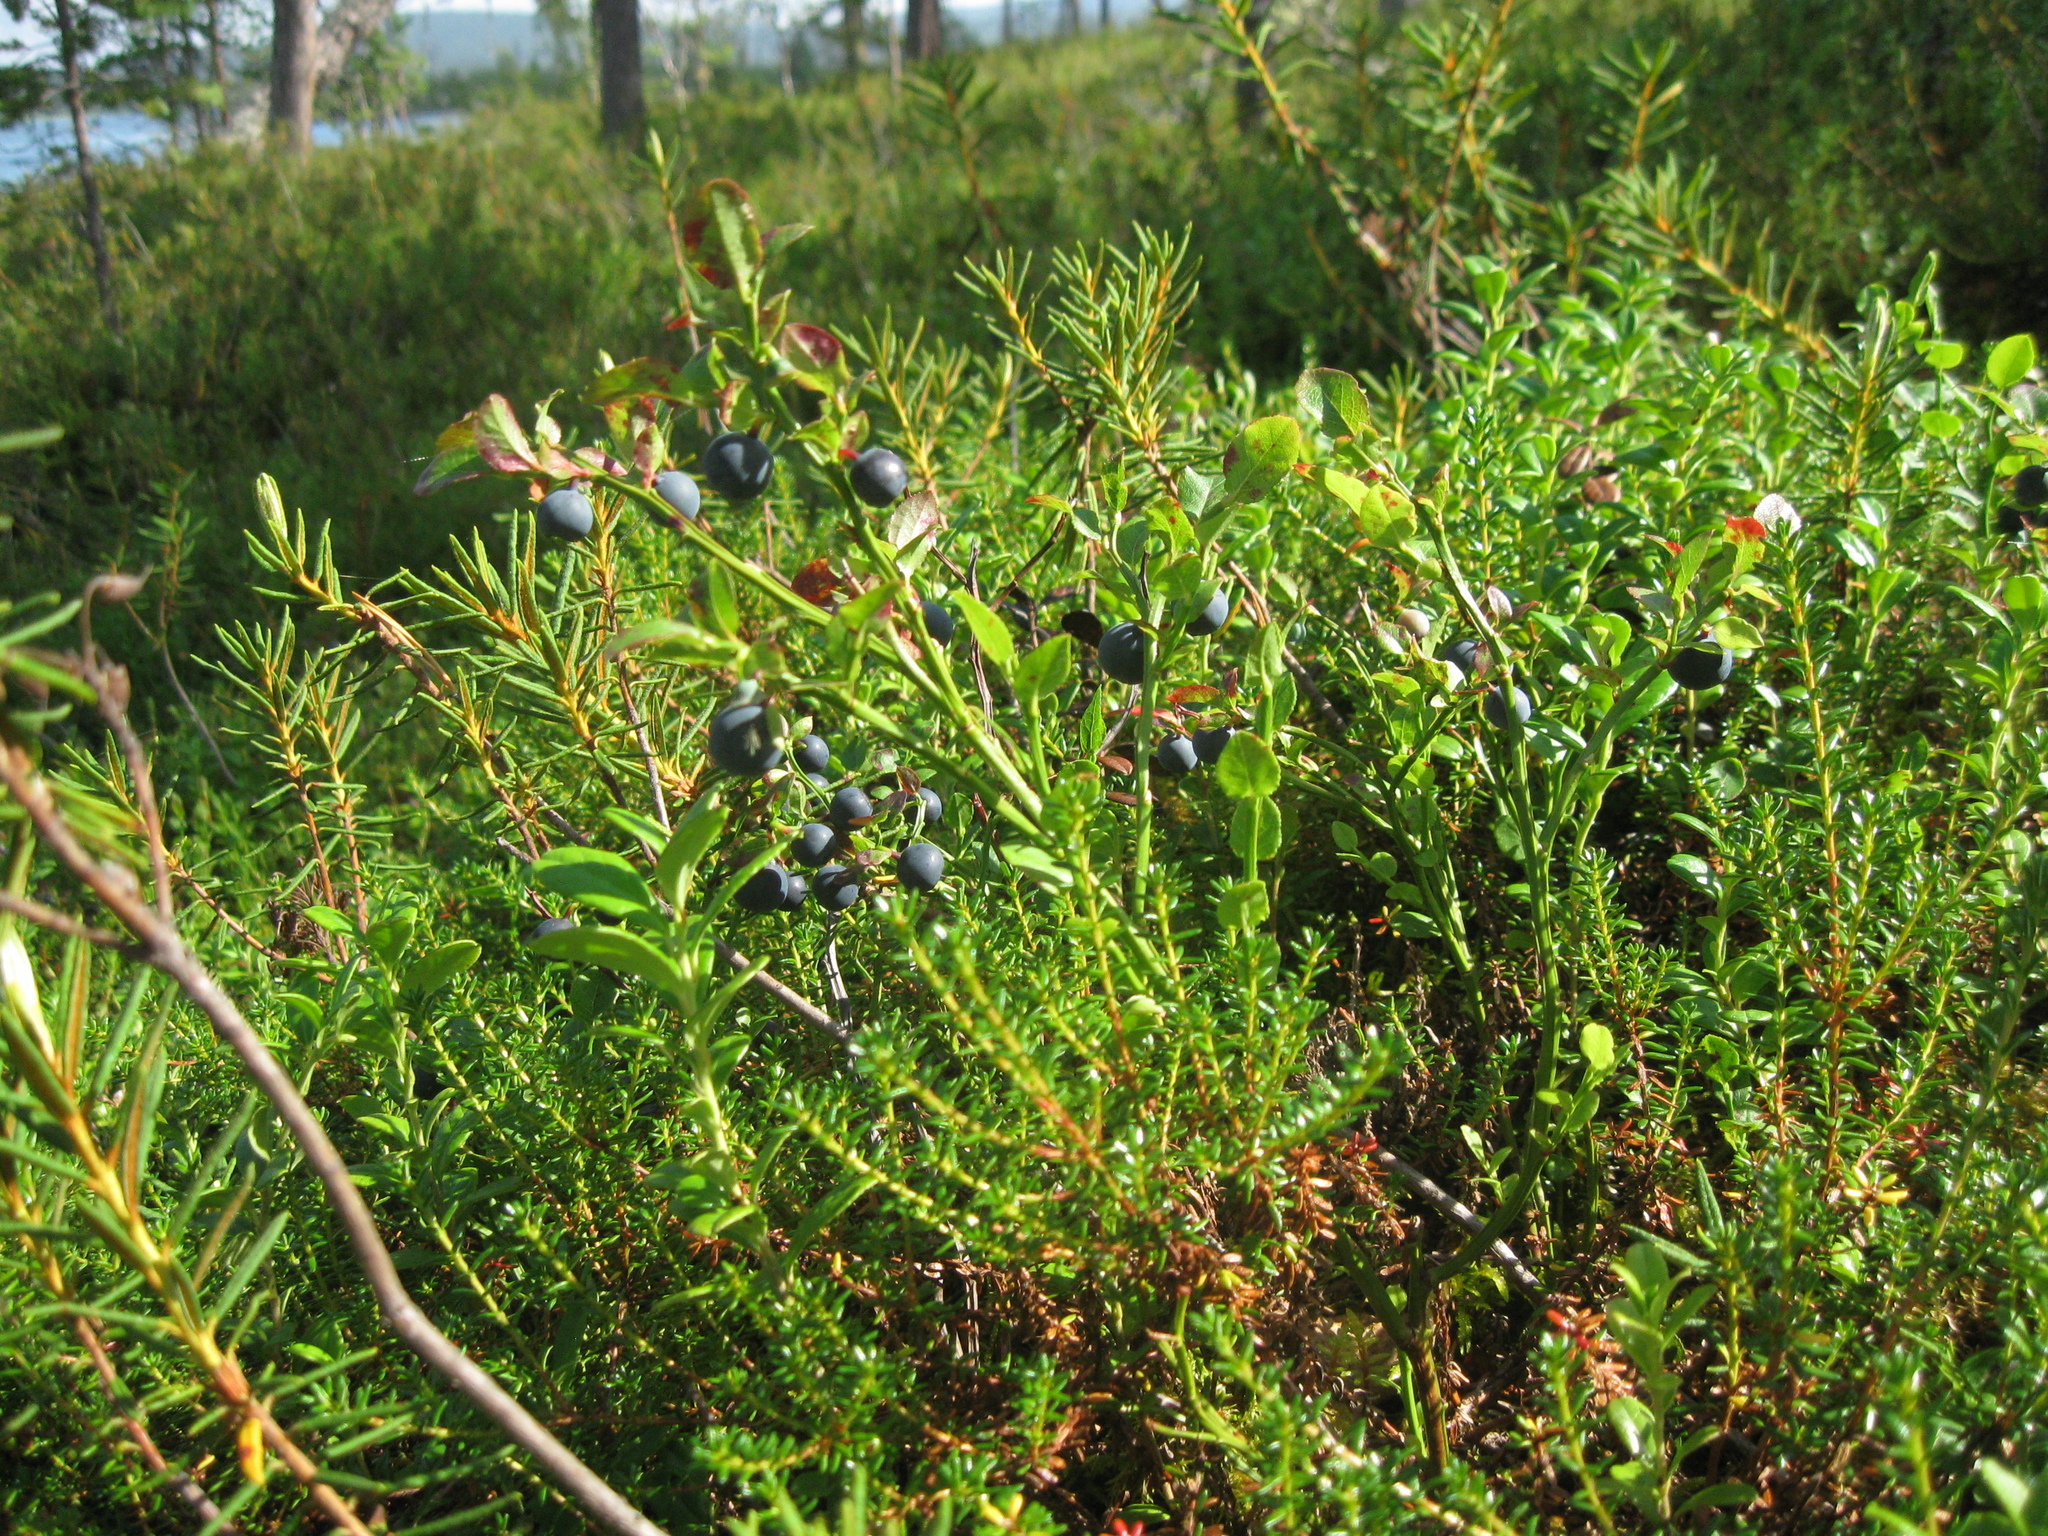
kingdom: Plantae
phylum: Tracheophyta
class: Magnoliopsida
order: Ericales
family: Ericaceae
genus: Vaccinium
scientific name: Vaccinium myrtillus
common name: Bilberry
